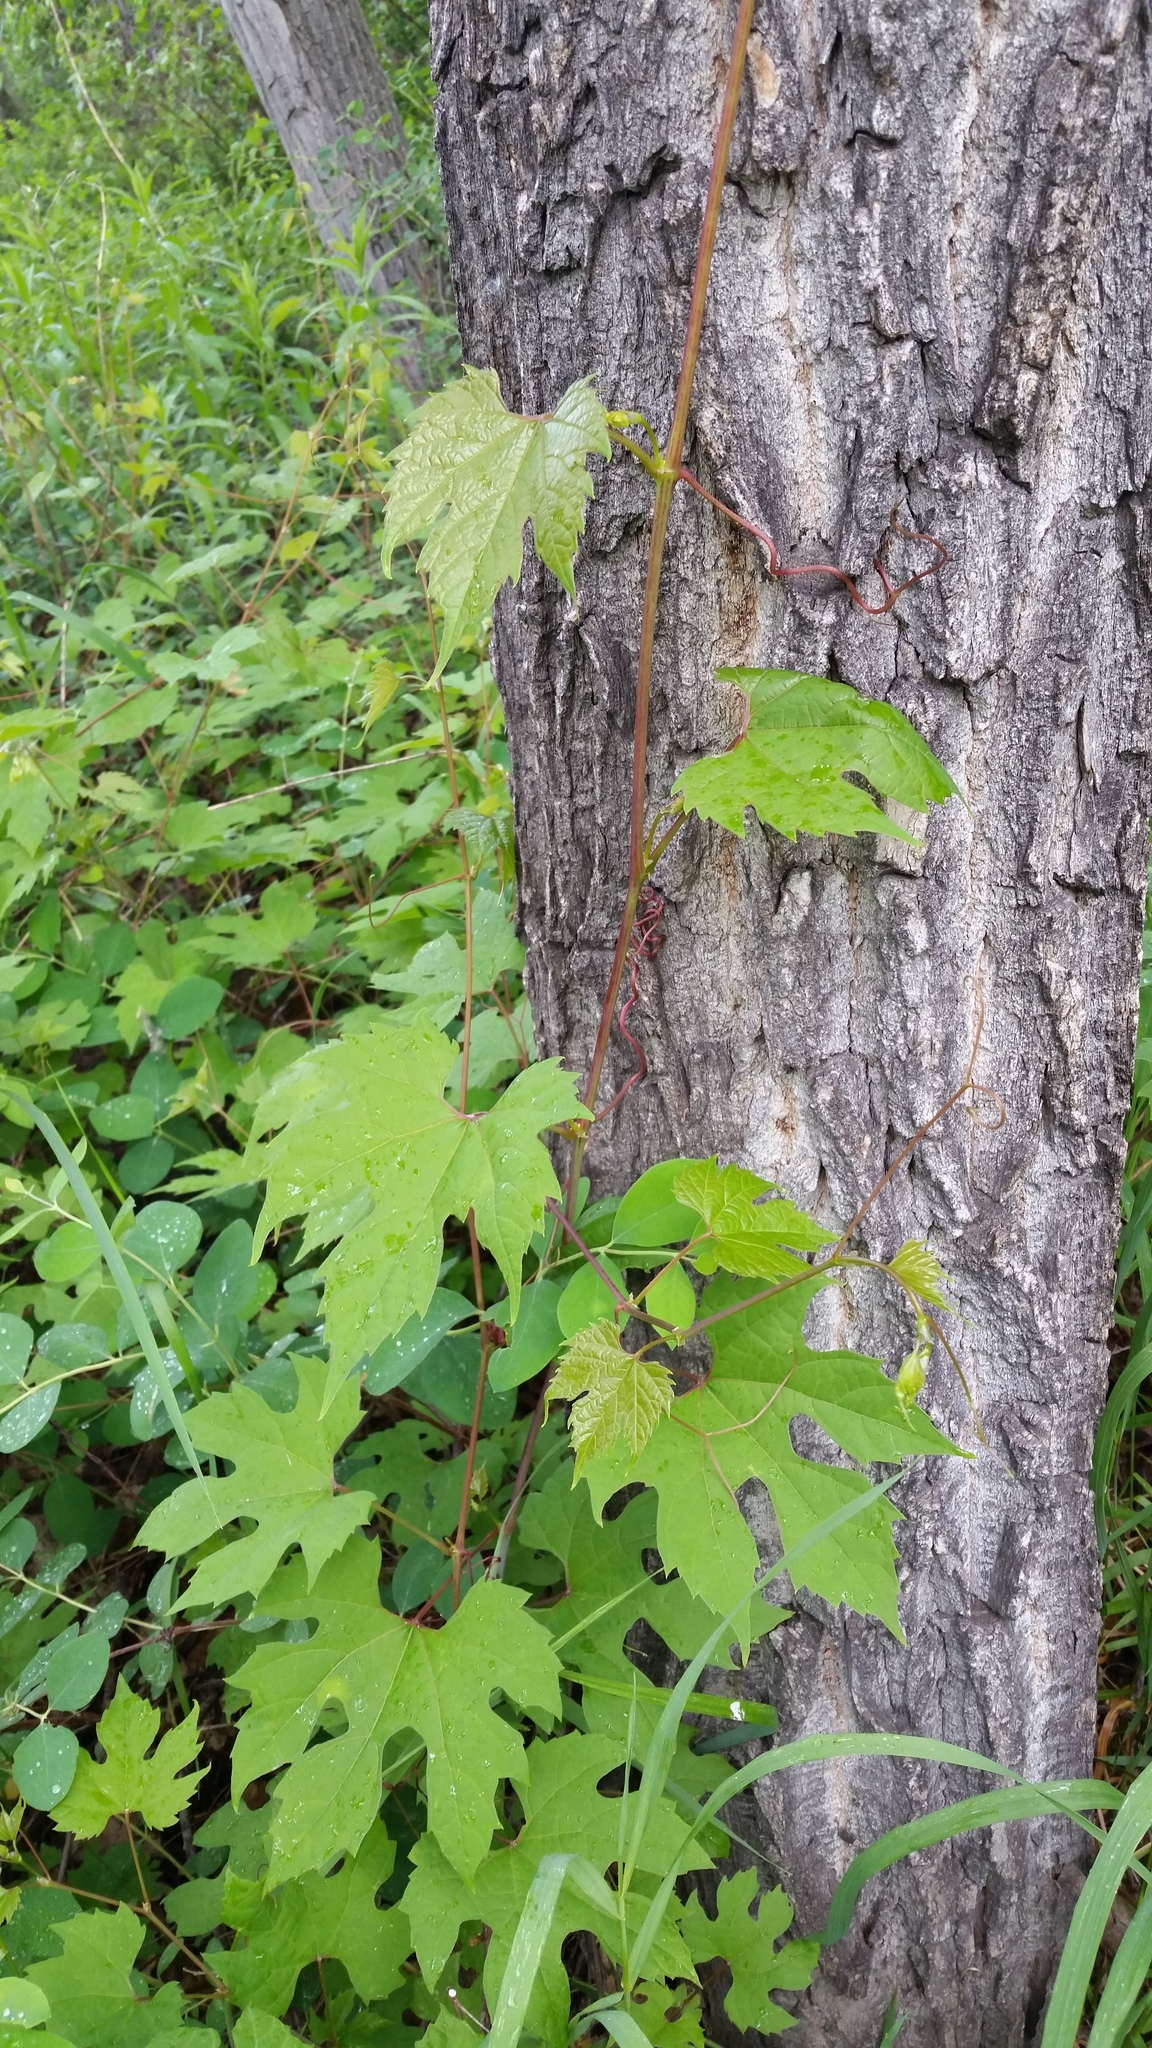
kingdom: Plantae
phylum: Tracheophyta
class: Magnoliopsida
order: Vitales
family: Vitaceae
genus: Vitis
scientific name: Vitis riparia
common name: Frost grape
